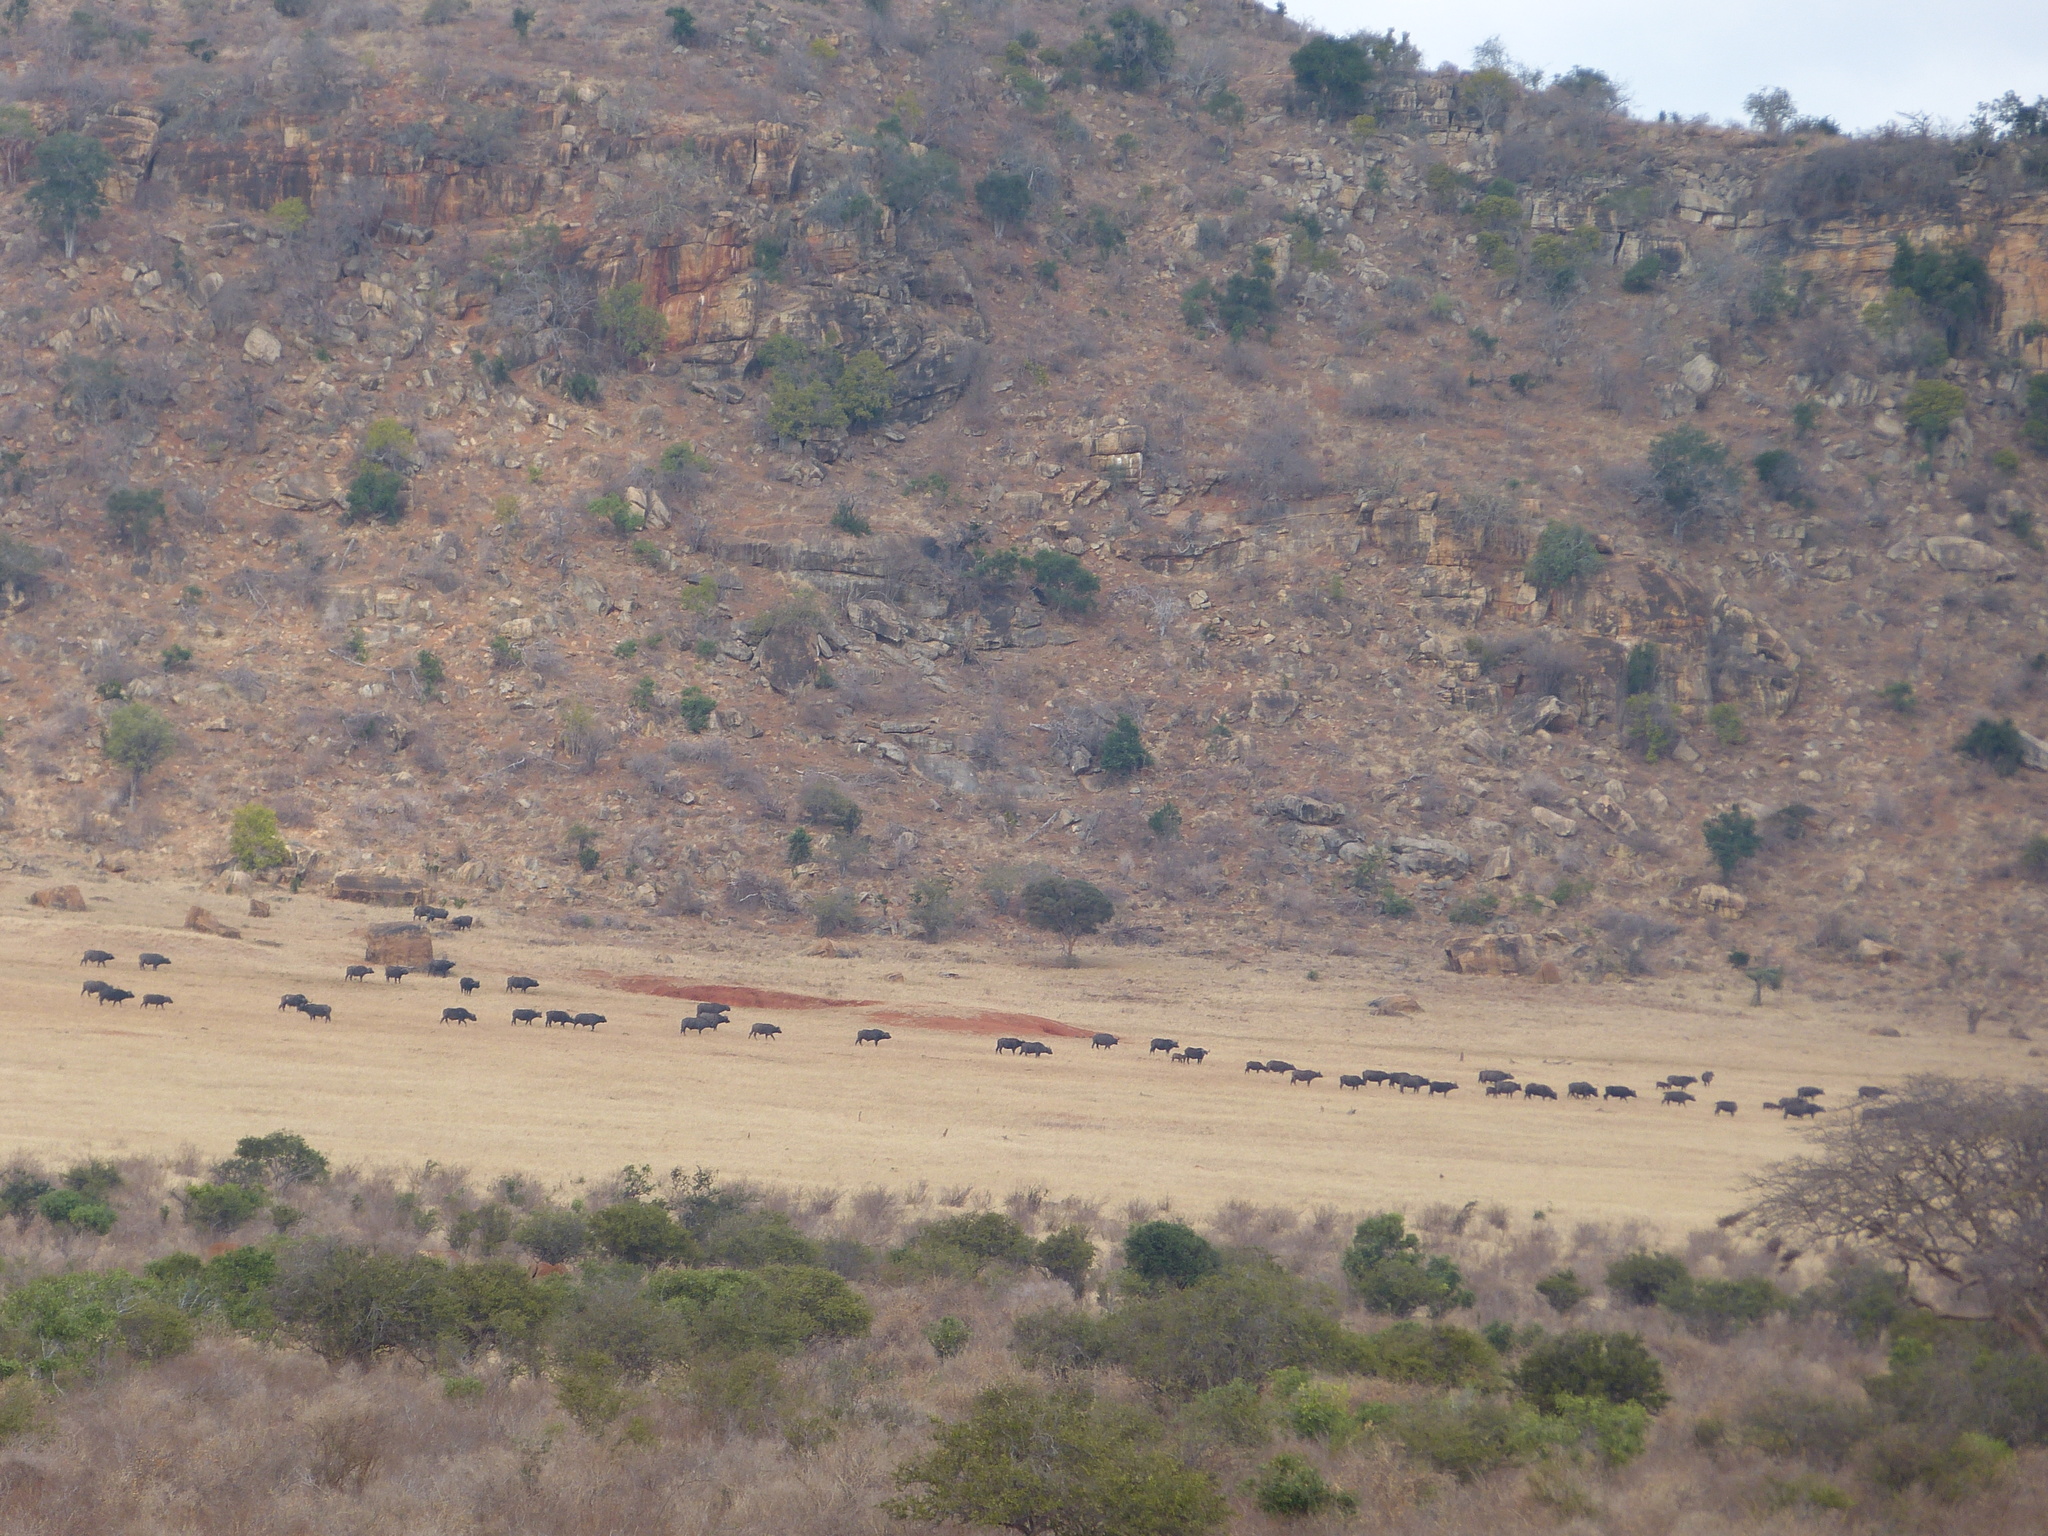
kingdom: Animalia
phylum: Chordata
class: Mammalia
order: Artiodactyla
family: Bovidae
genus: Syncerus
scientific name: Syncerus caffer
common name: African buffalo
